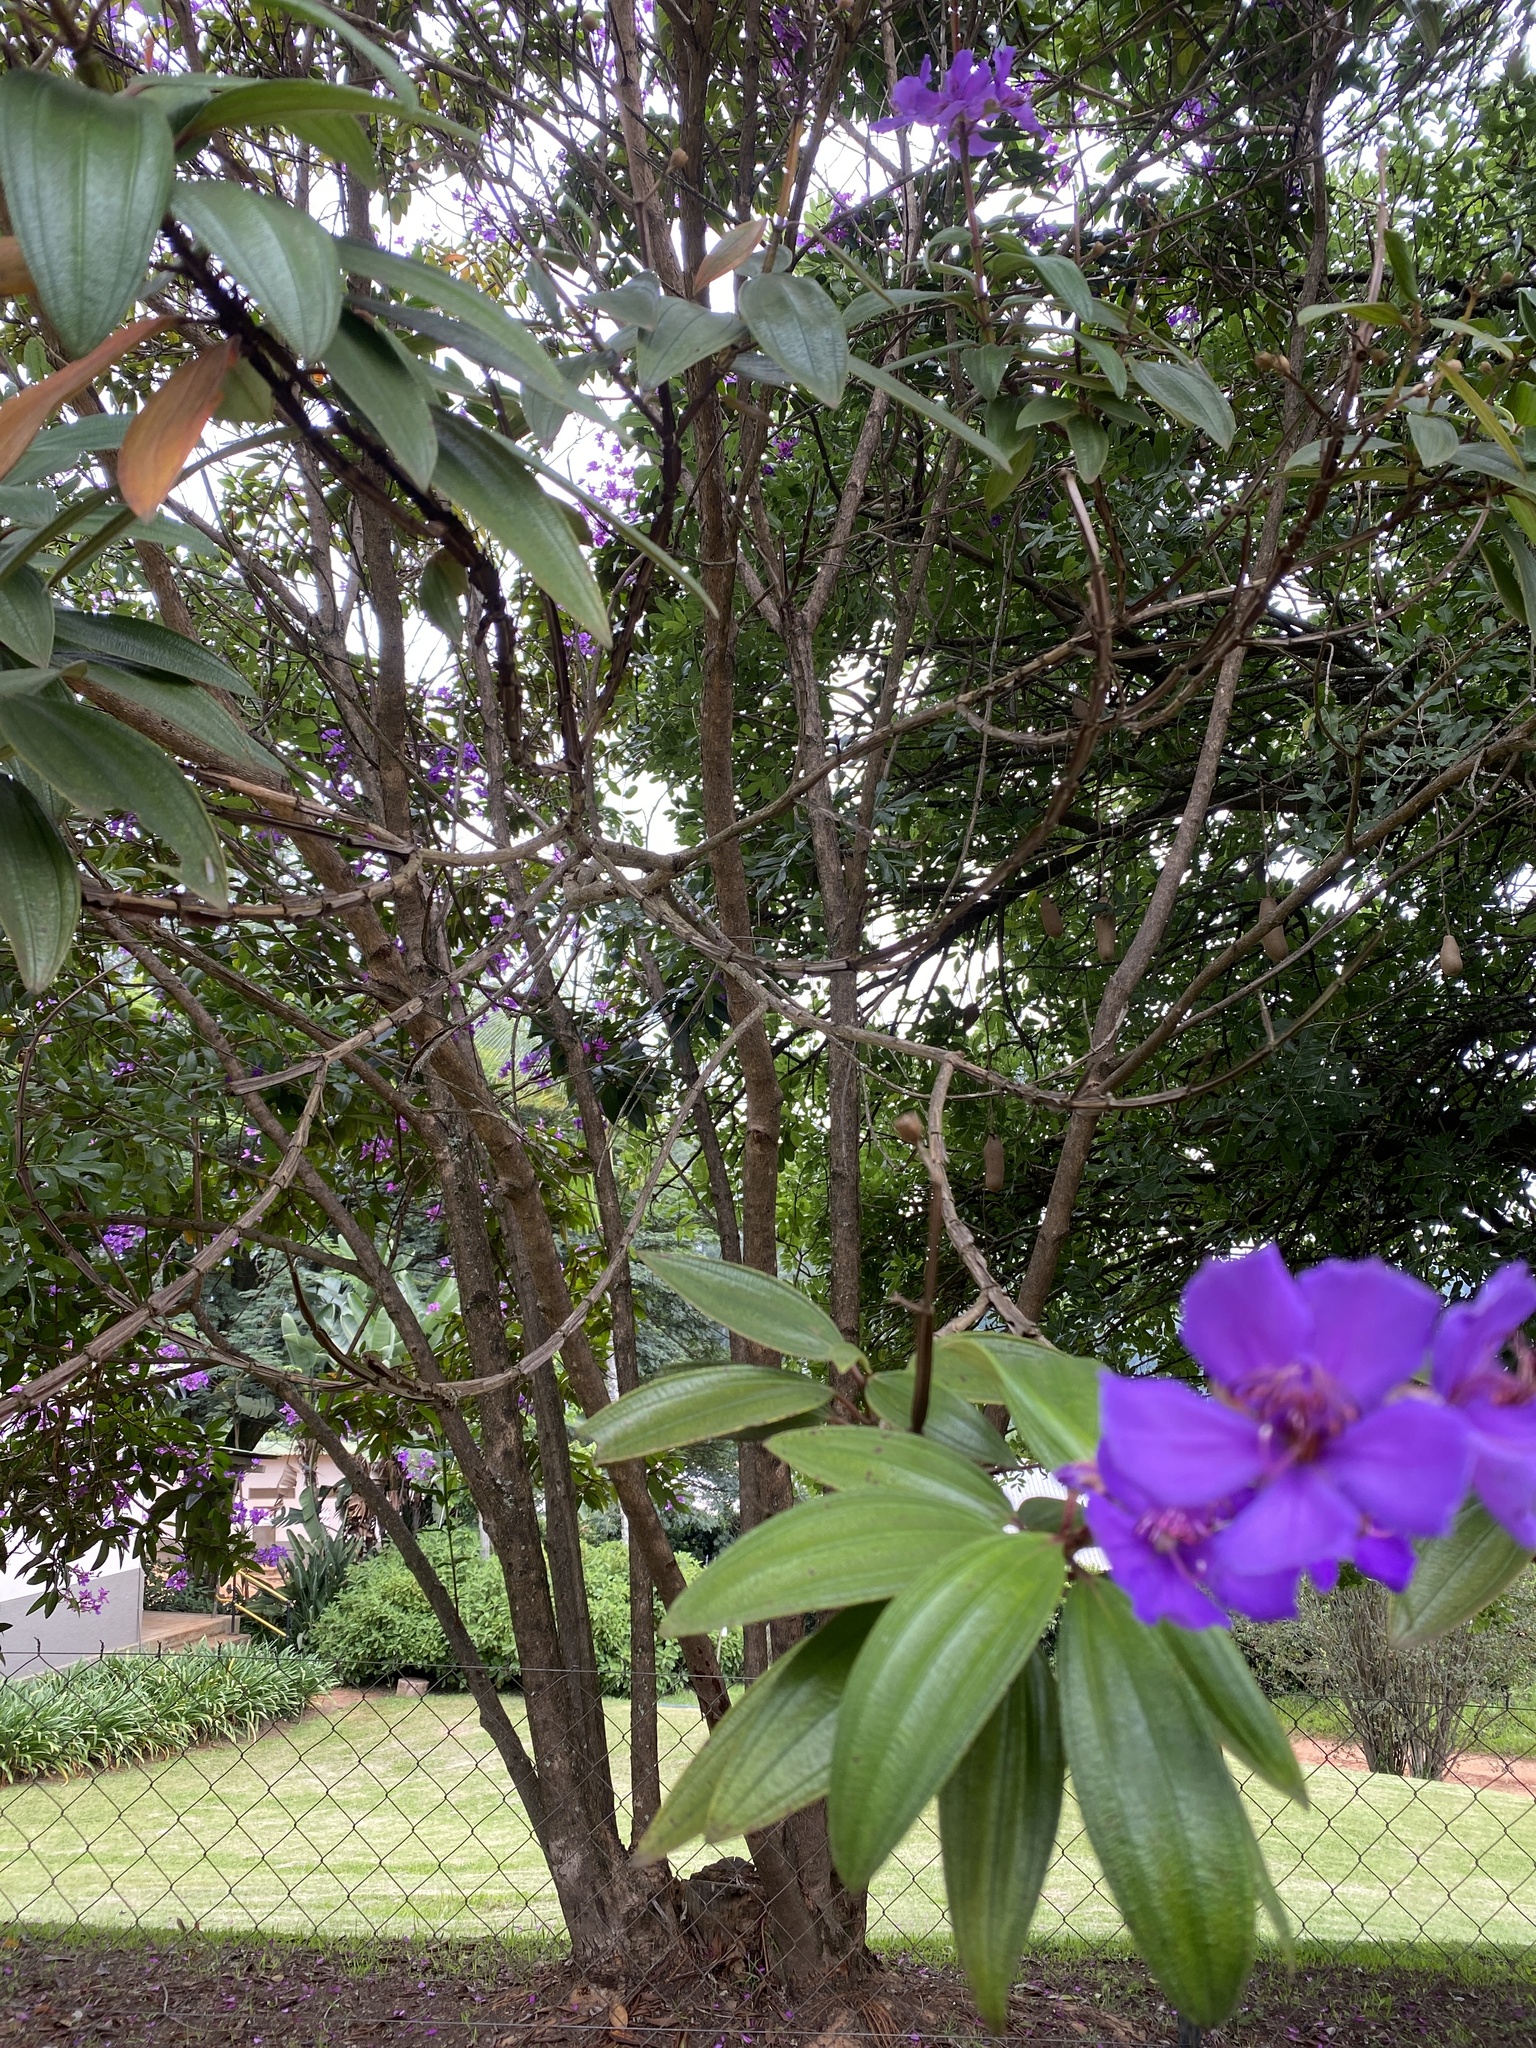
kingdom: Plantae
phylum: Tracheophyta
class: Magnoliopsida
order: Myrtales
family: Melastomataceae
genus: Pleroma
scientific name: Pleroma granulosum
